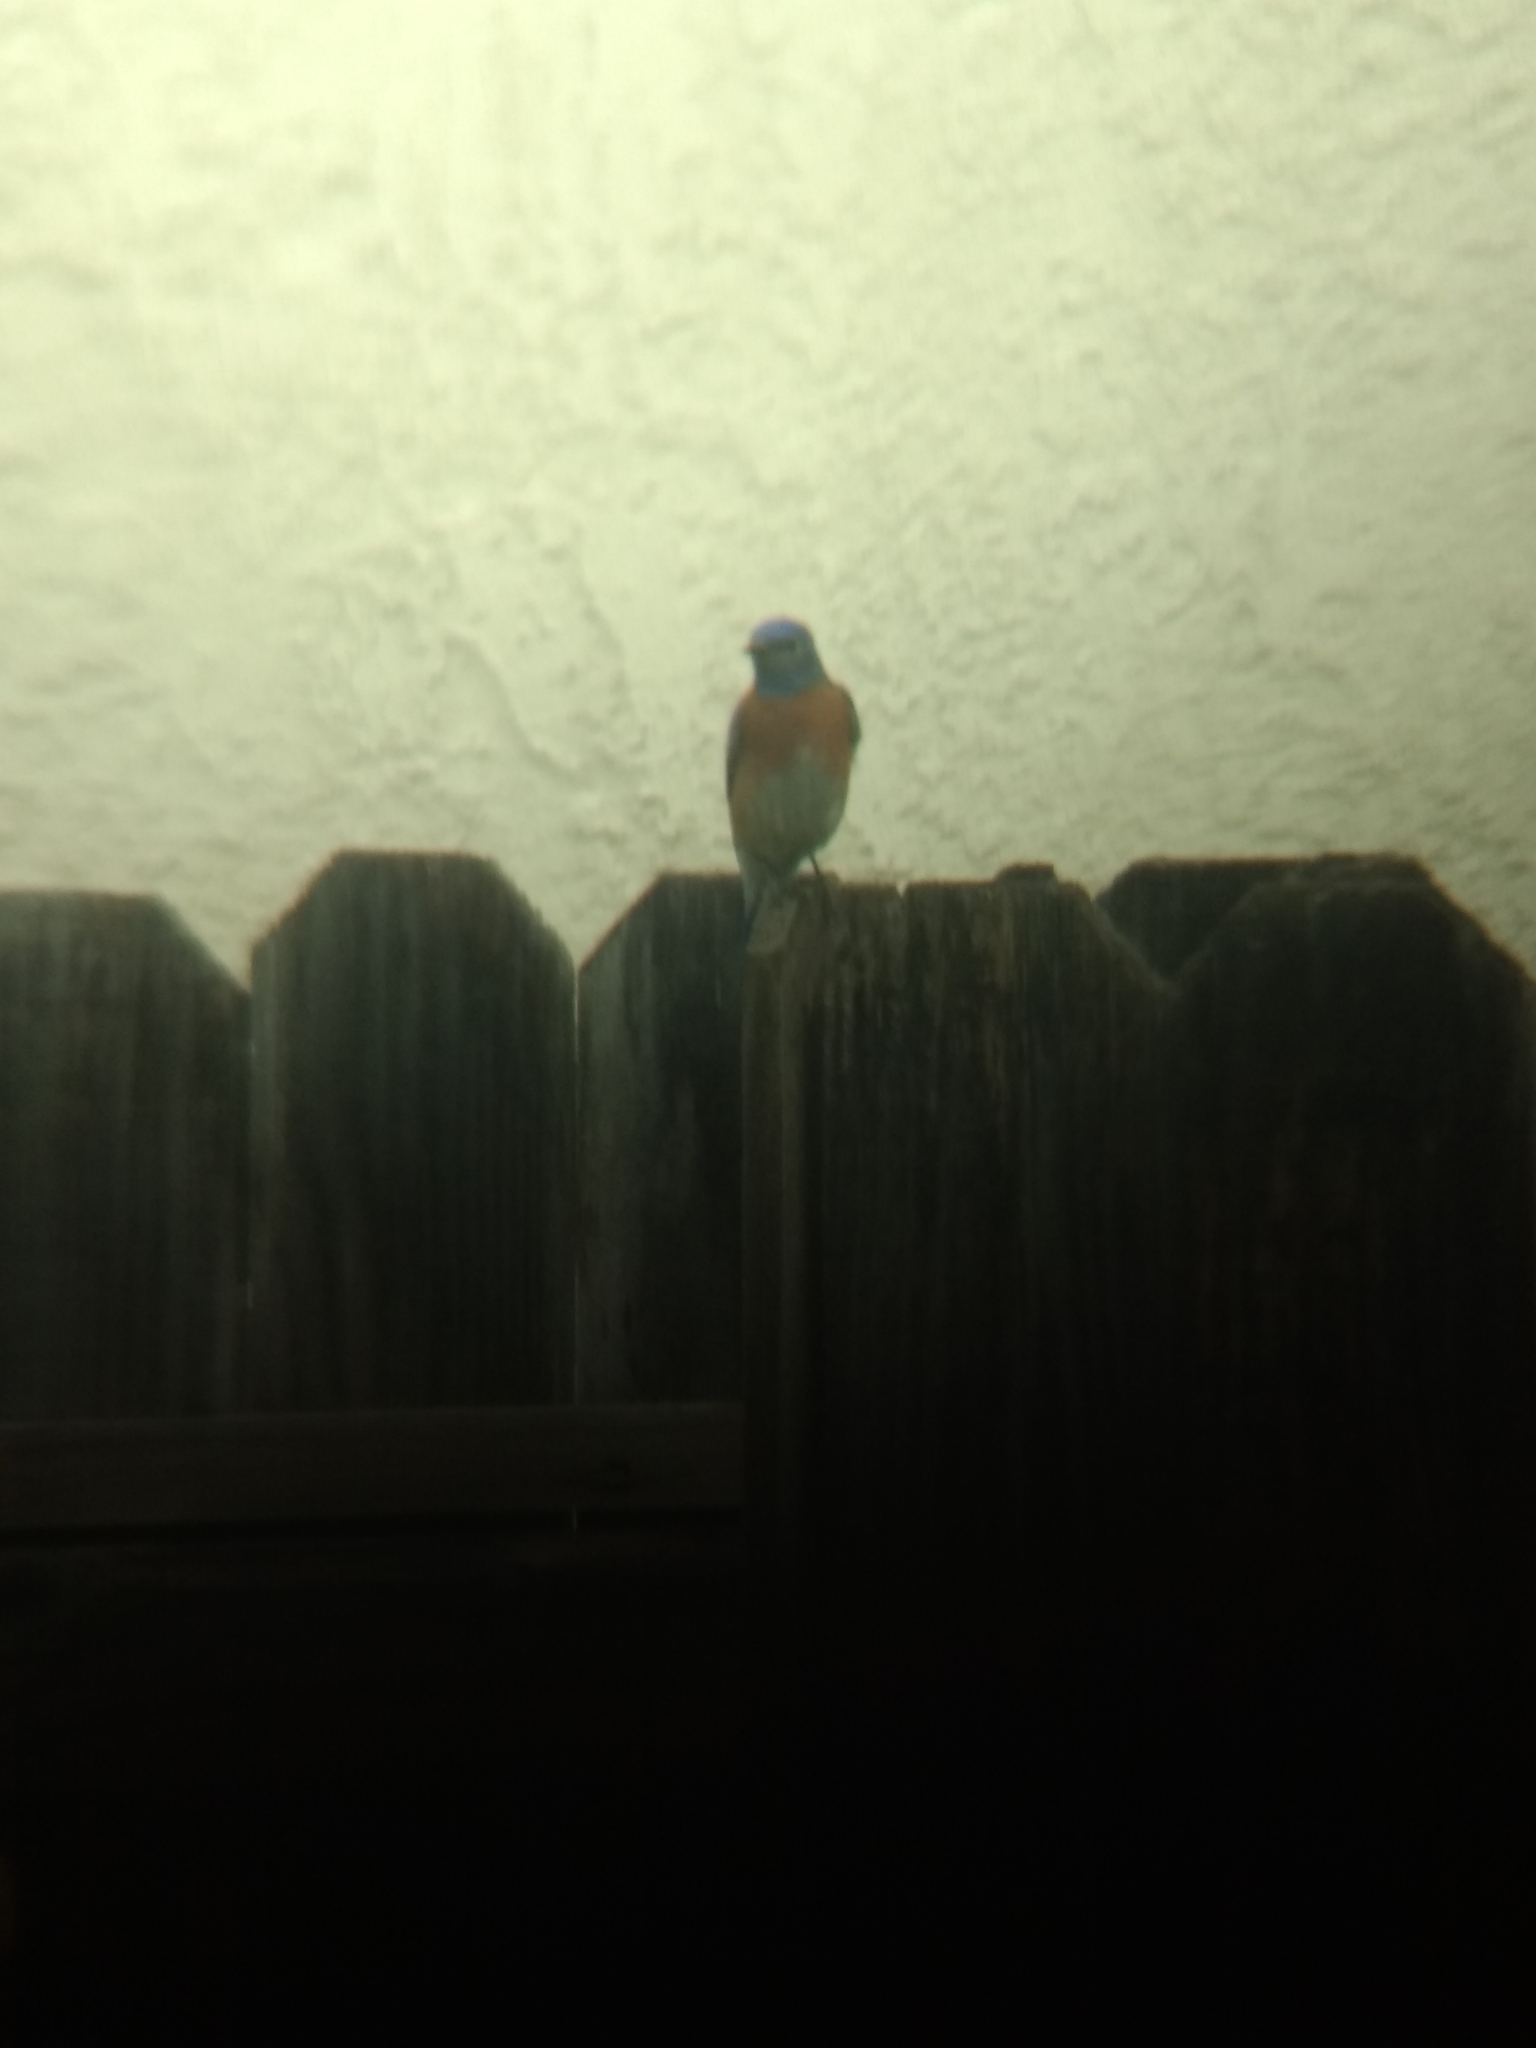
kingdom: Animalia
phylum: Chordata
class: Aves
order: Passeriformes
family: Turdidae
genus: Sialia
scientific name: Sialia mexicana
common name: Western bluebird
